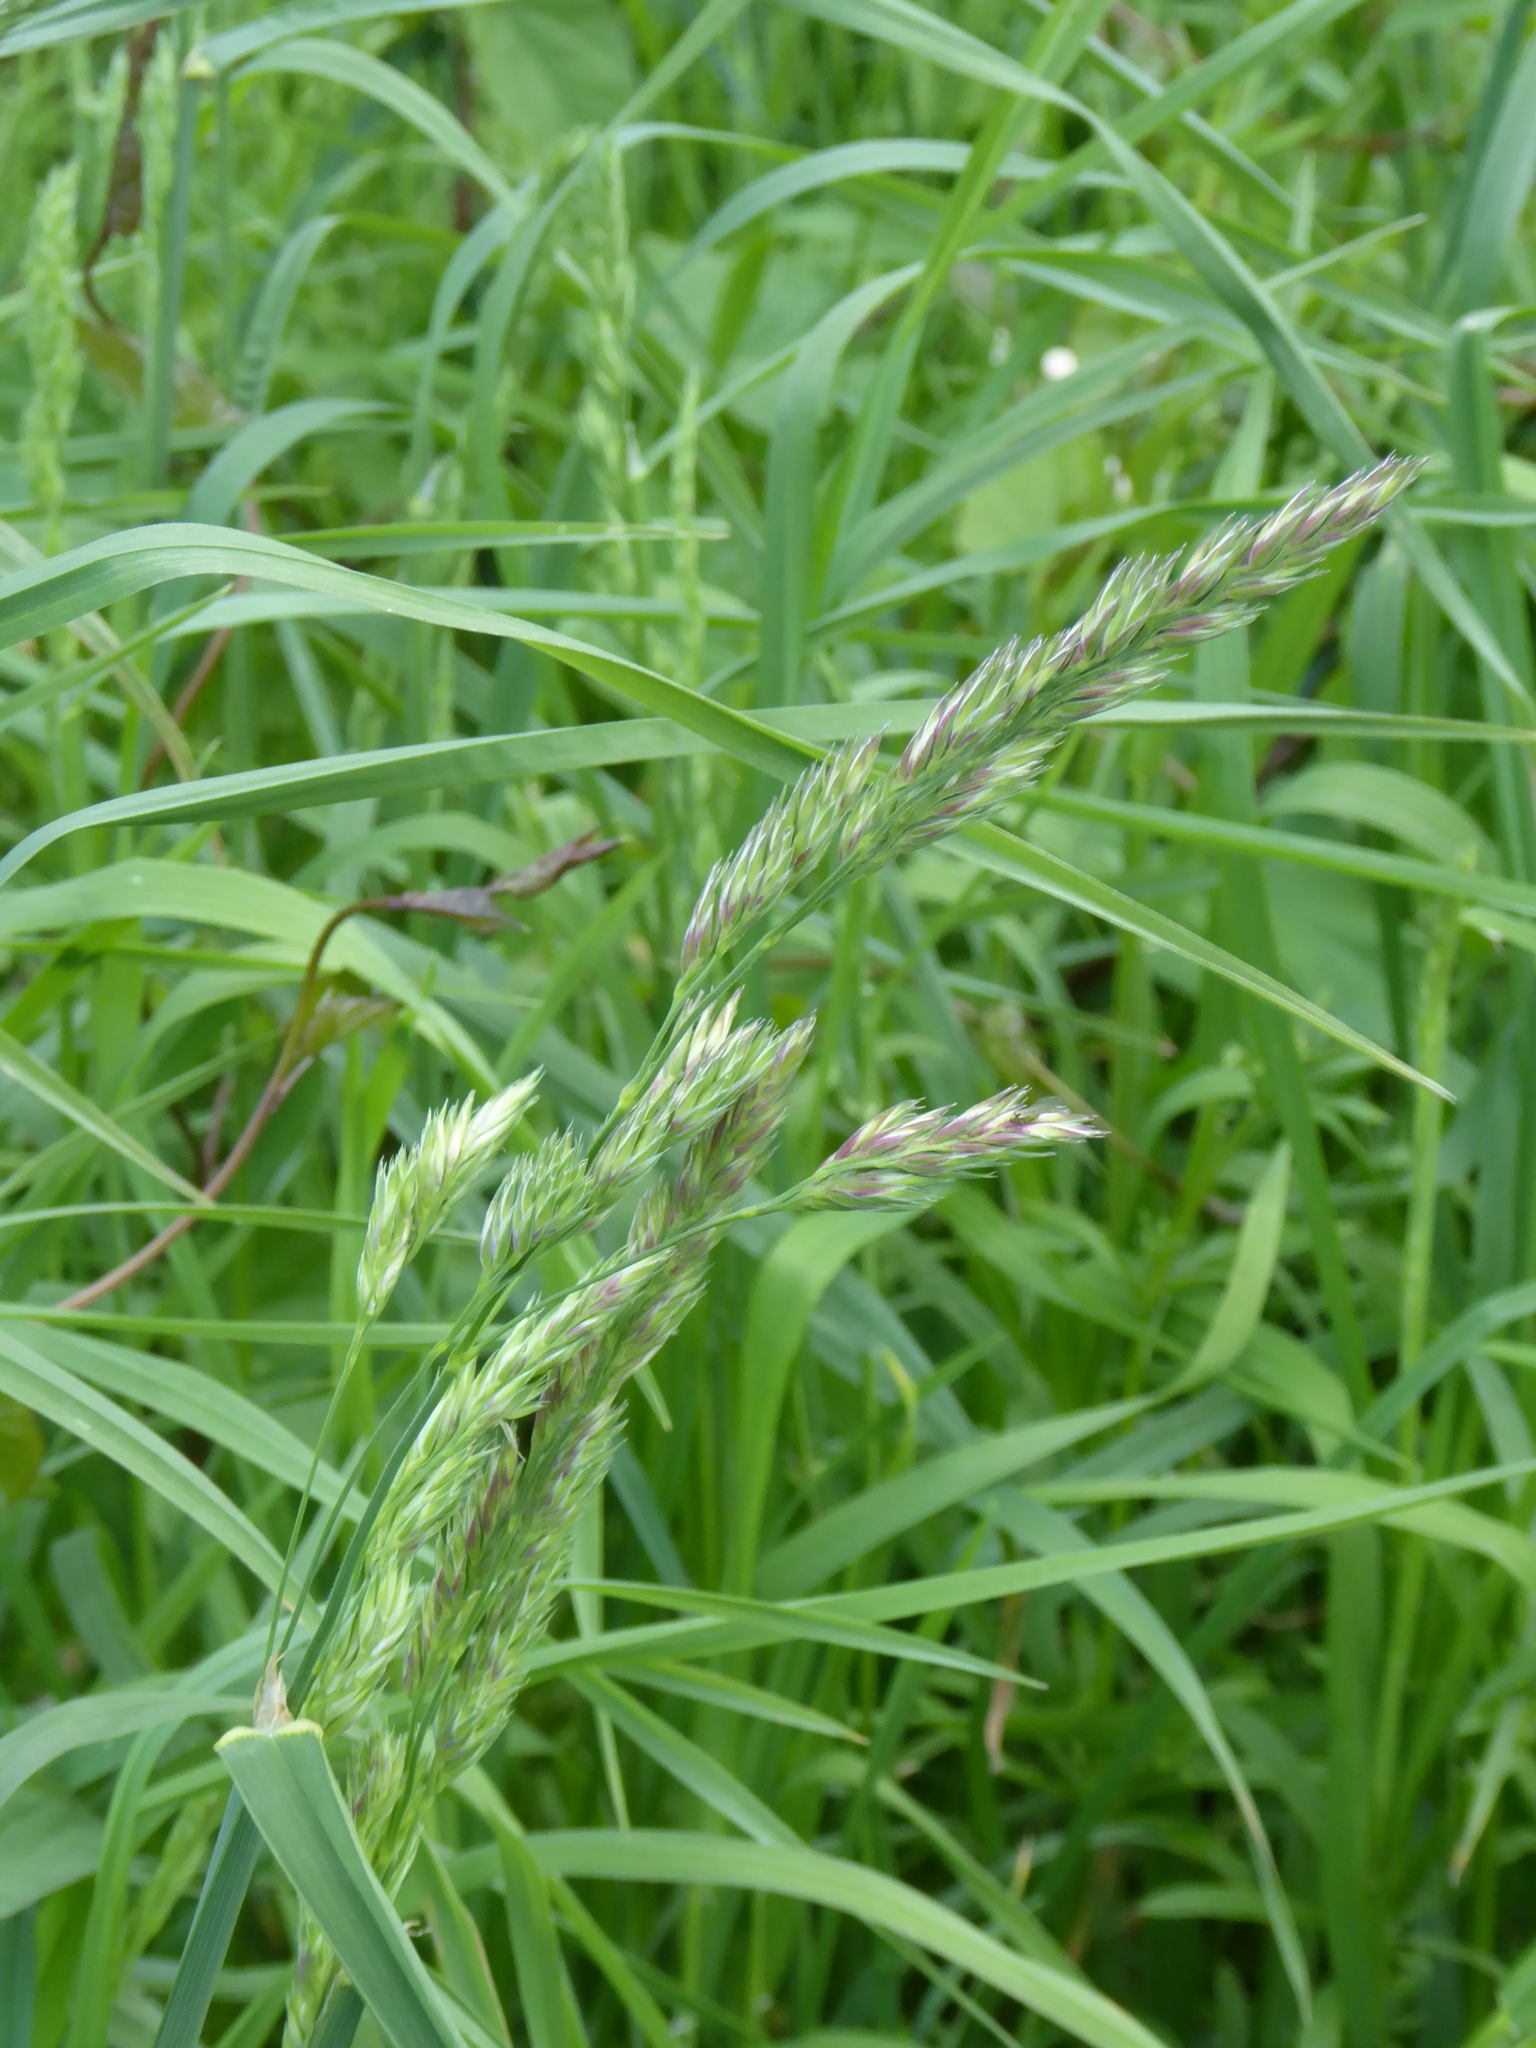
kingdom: Plantae
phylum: Tracheophyta
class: Liliopsida
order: Poales
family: Poaceae
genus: Dactylis
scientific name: Dactylis glomerata
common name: Orchardgrass
